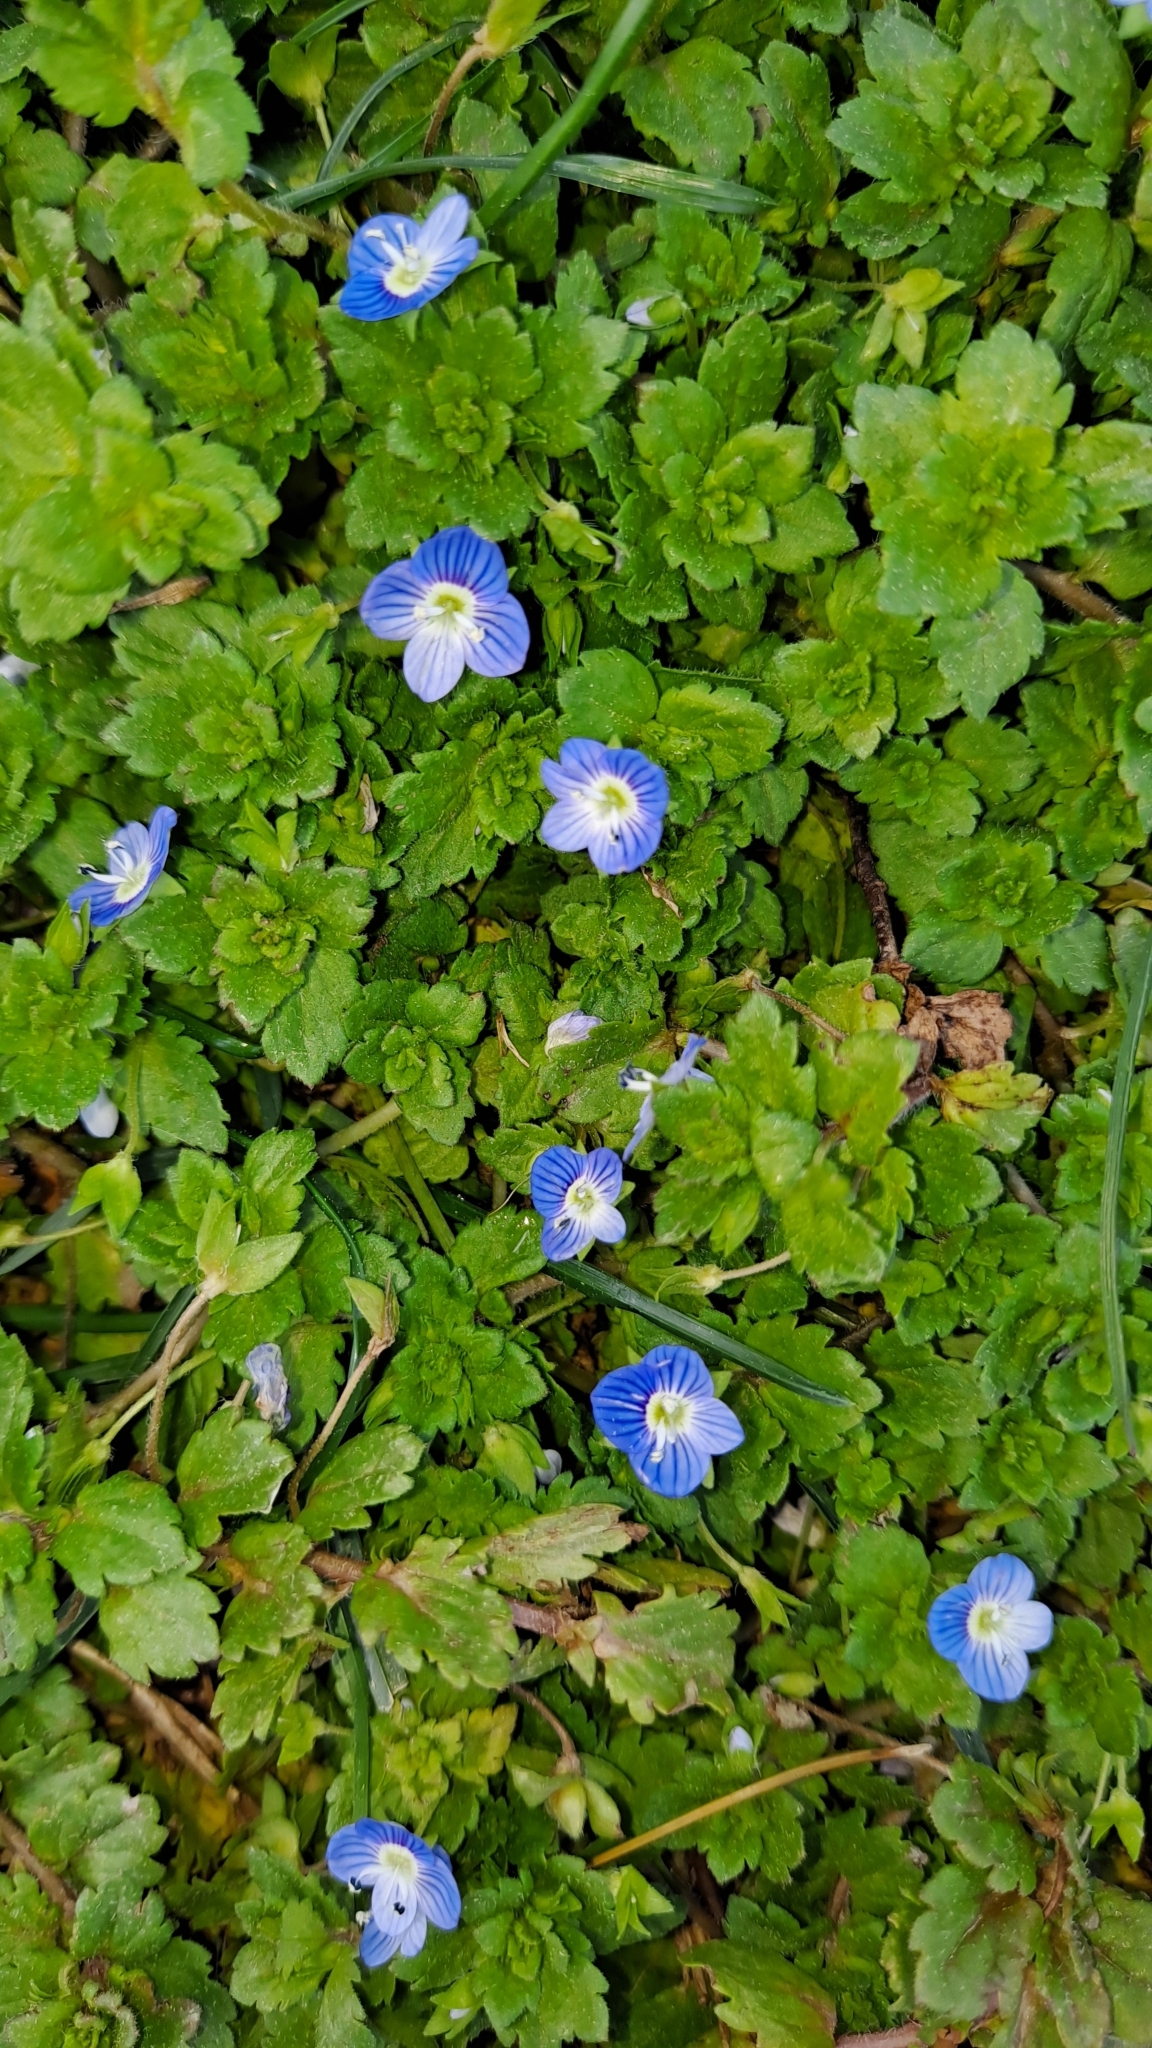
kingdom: Plantae
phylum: Tracheophyta
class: Magnoliopsida
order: Lamiales
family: Plantaginaceae
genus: Veronica
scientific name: Veronica persica
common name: Common field-speedwell
